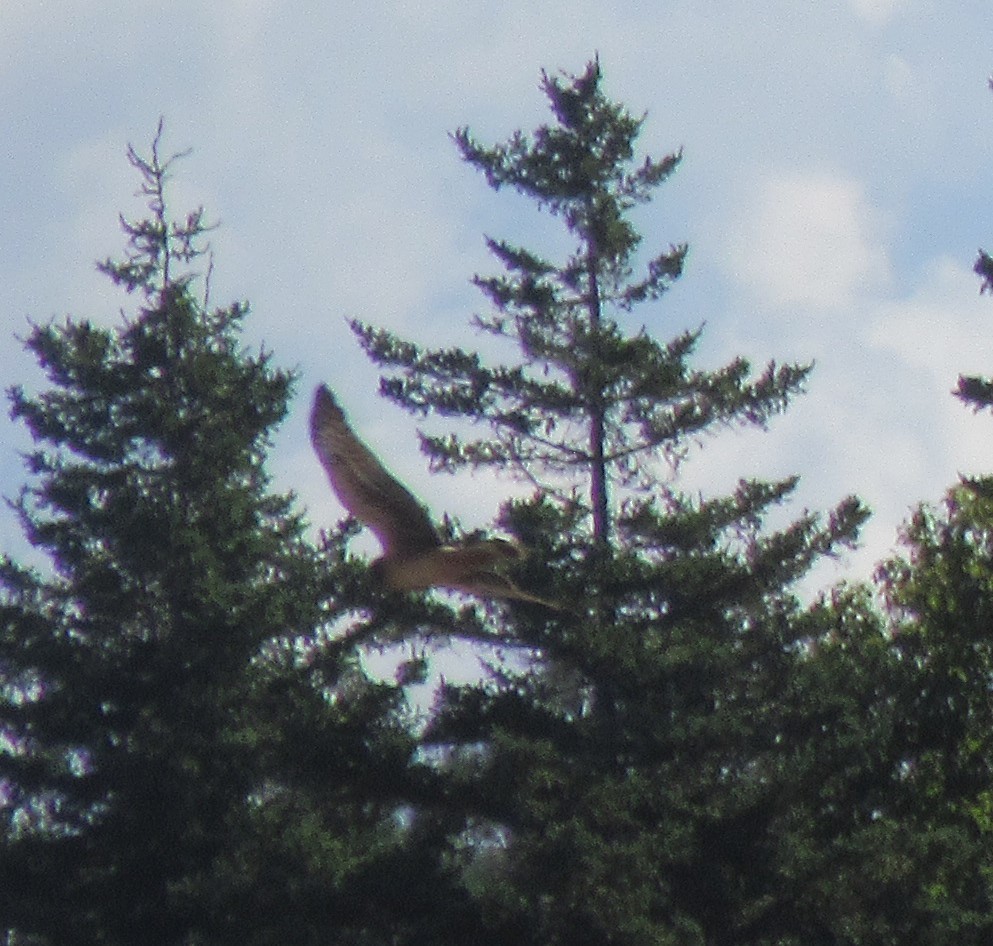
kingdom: Animalia
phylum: Chordata
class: Aves
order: Accipitriformes
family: Accipitridae
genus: Circus
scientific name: Circus cyaneus
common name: Hen harrier
